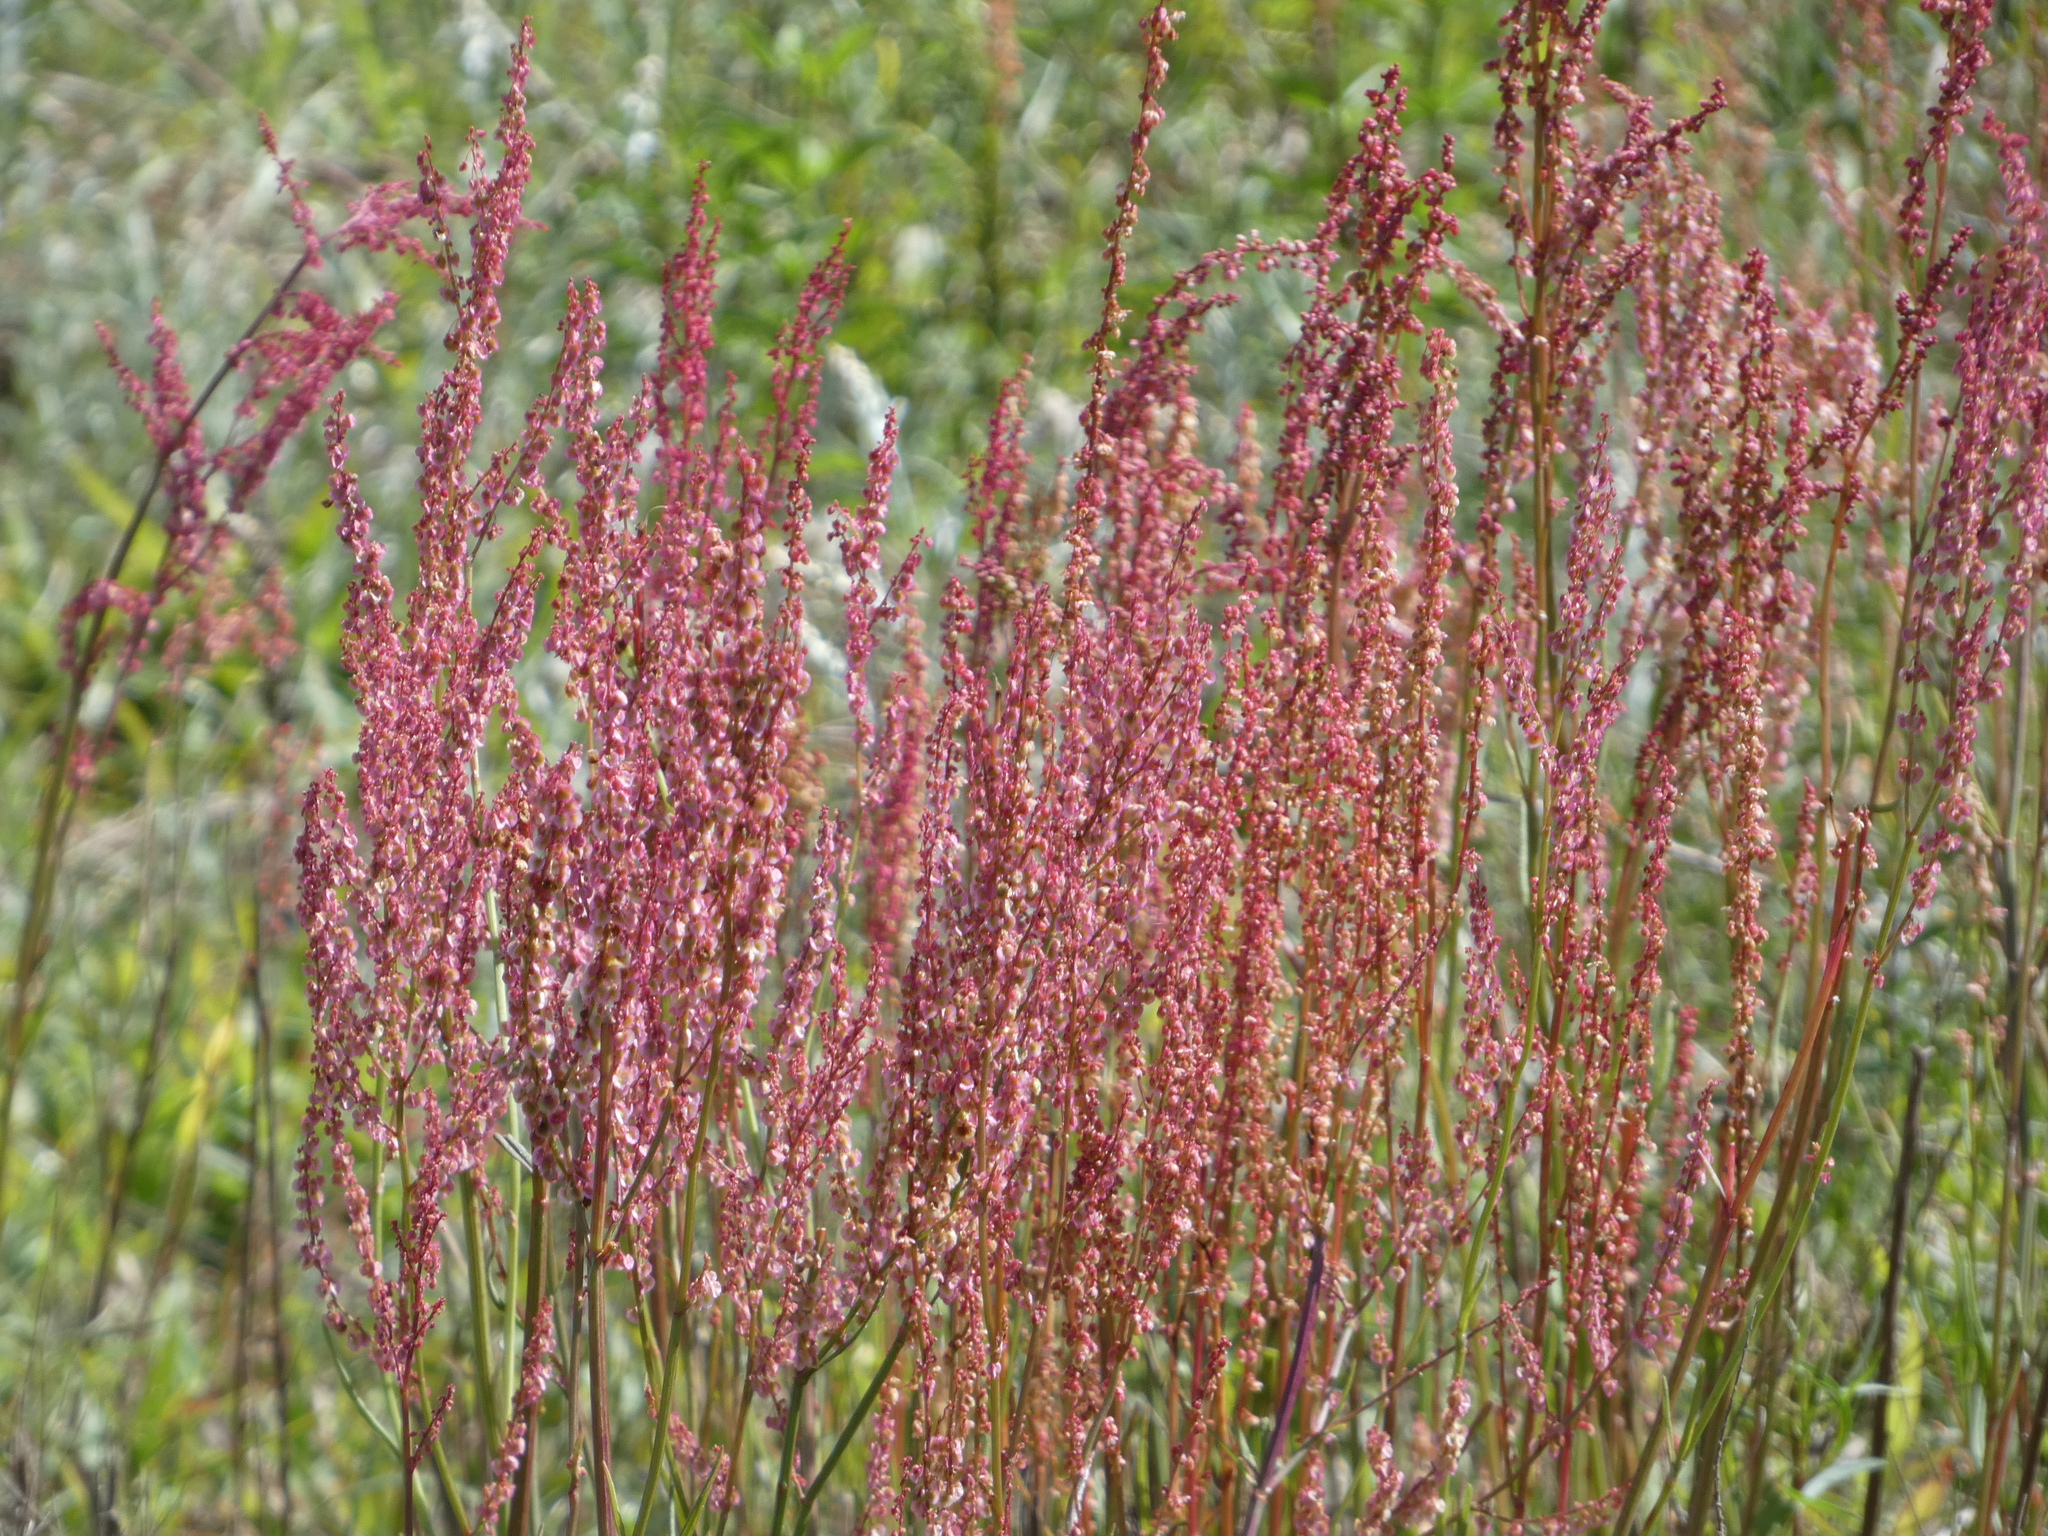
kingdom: Plantae
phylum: Tracheophyta
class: Magnoliopsida
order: Caryophyllales
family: Polygonaceae
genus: Rumex
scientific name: Rumex hastatulus
